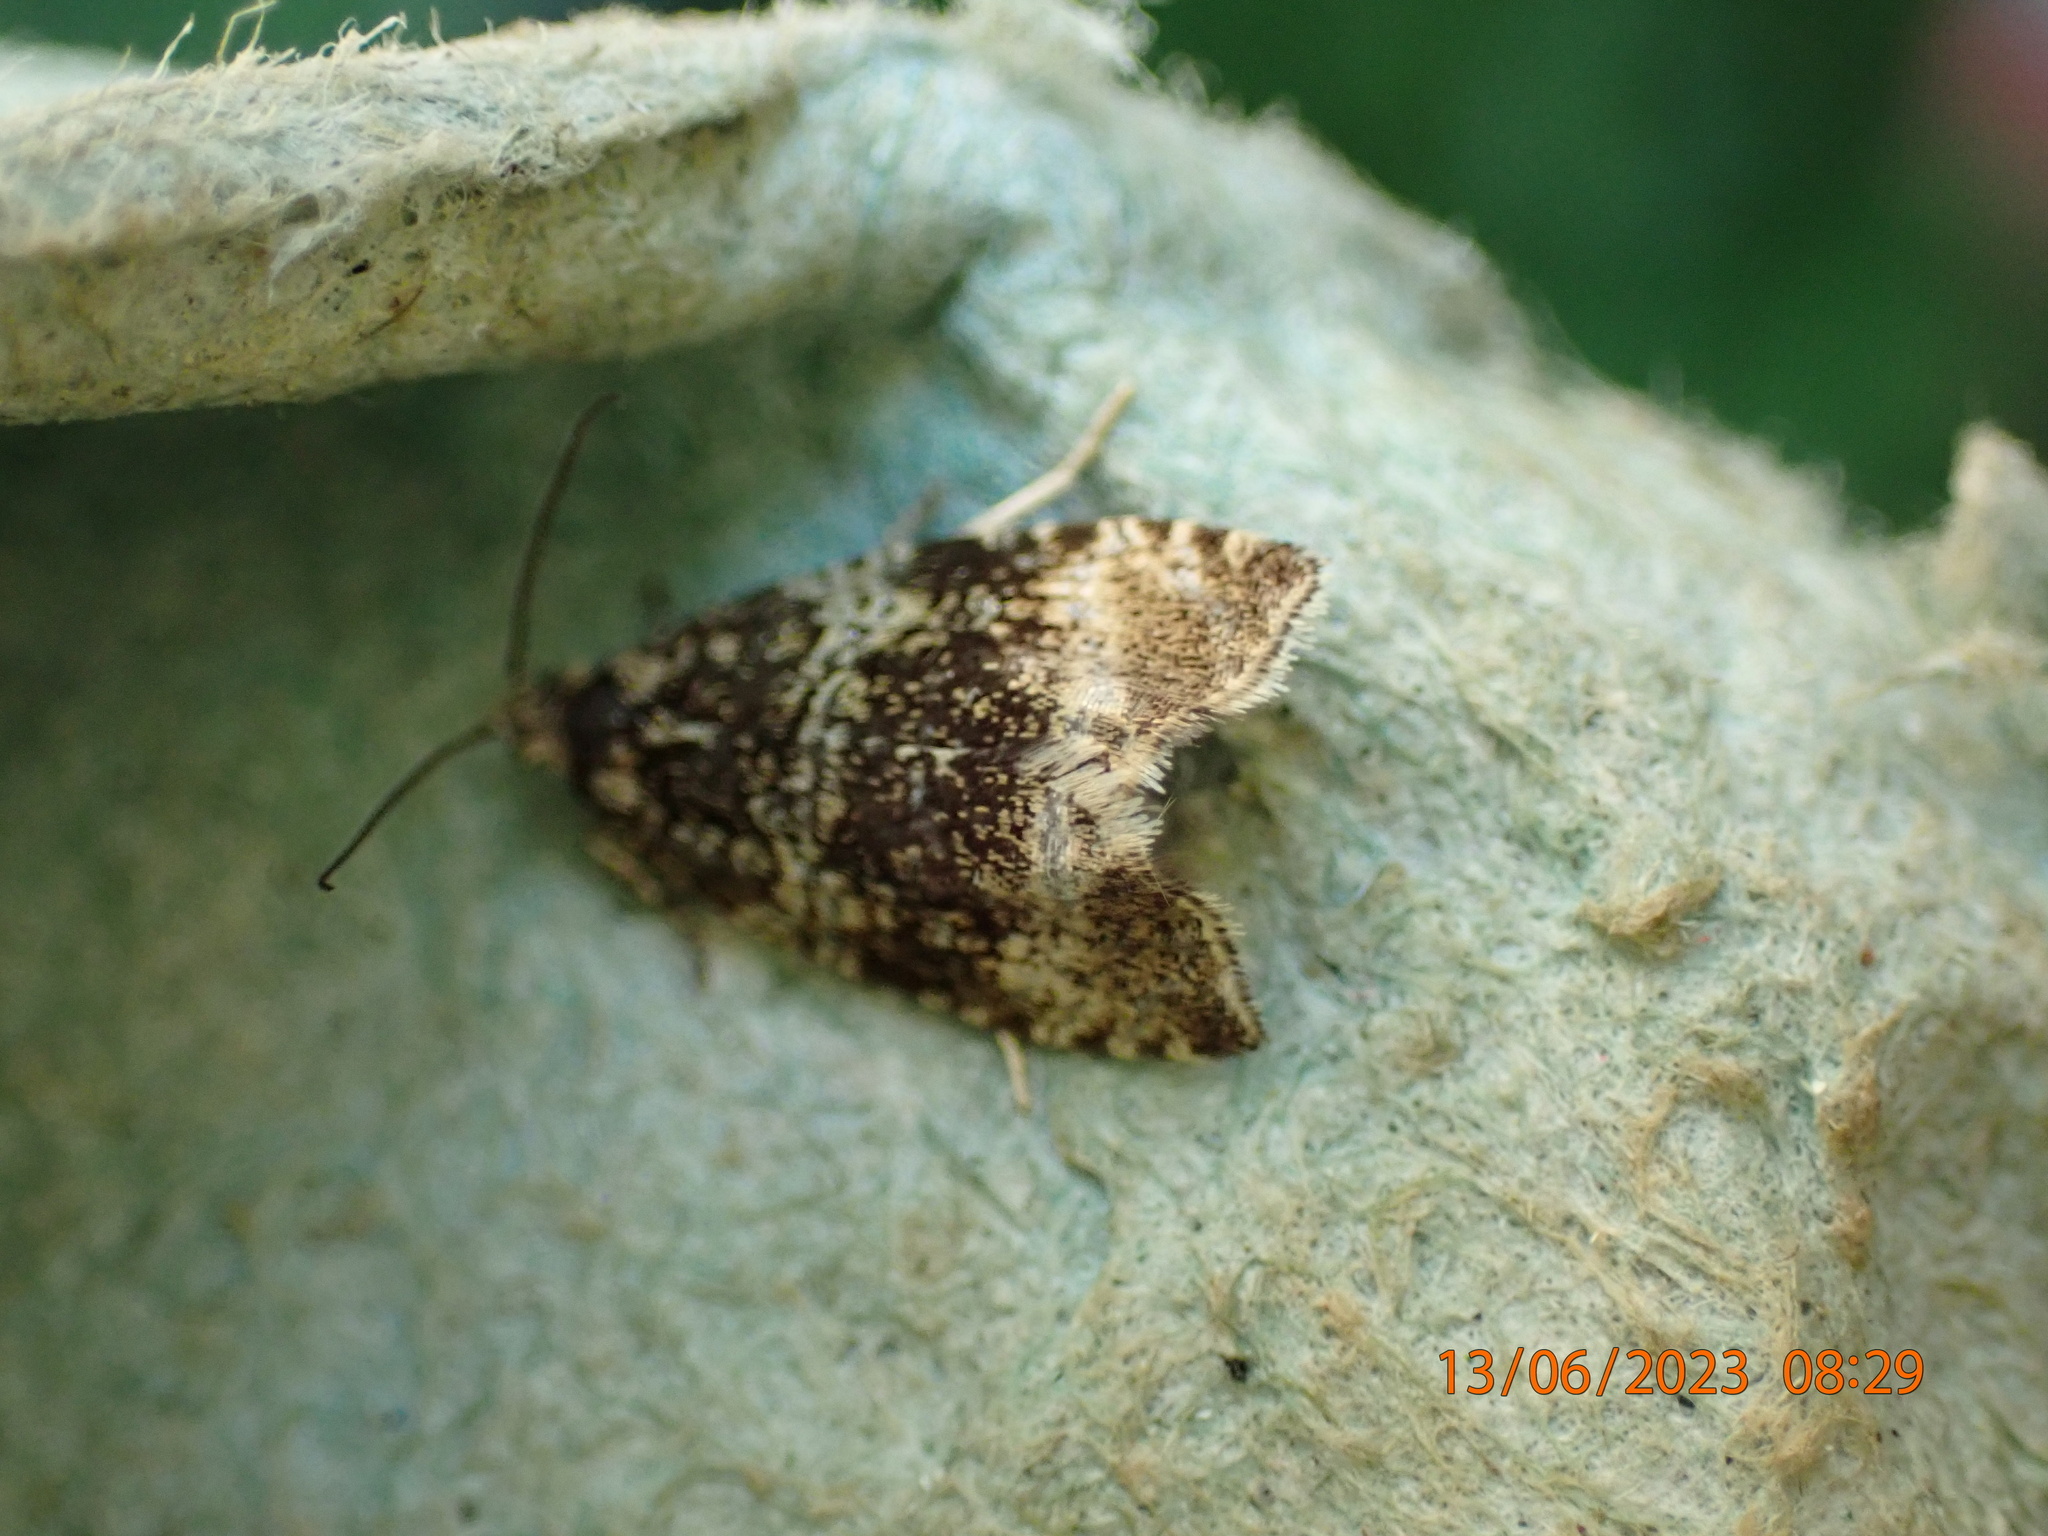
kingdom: Animalia
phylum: Arthropoda
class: Insecta
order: Lepidoptera
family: Tortricidae
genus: Syricoris
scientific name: Syricoris lacunana
